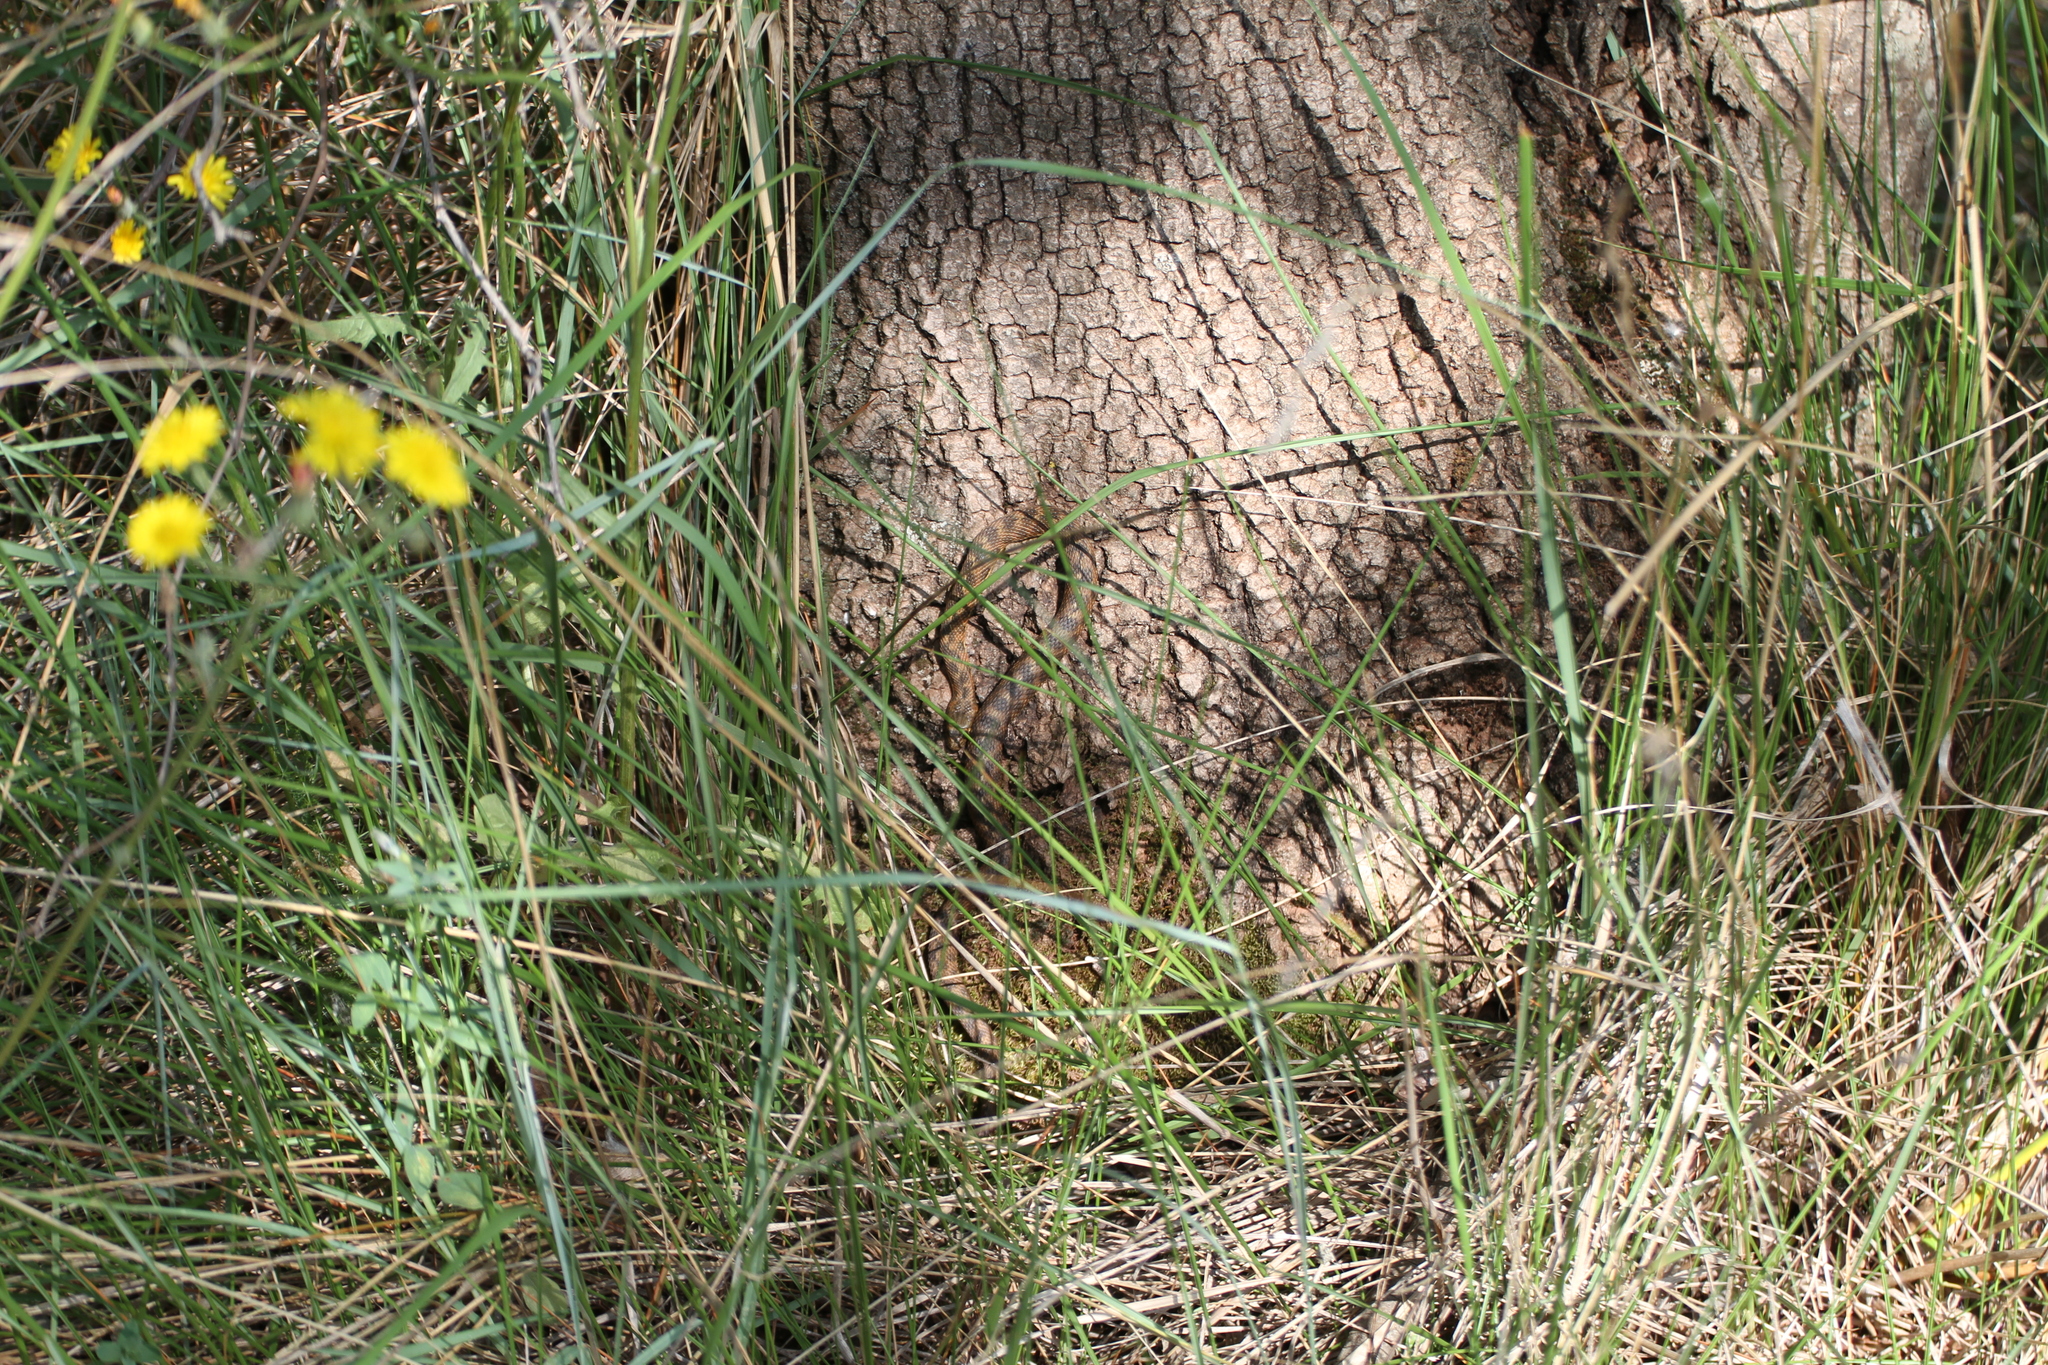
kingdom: Animalia
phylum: Chordata
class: Squamata
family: Colubridae
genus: Natrix
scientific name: Natrix maura
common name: Viperine water snake
